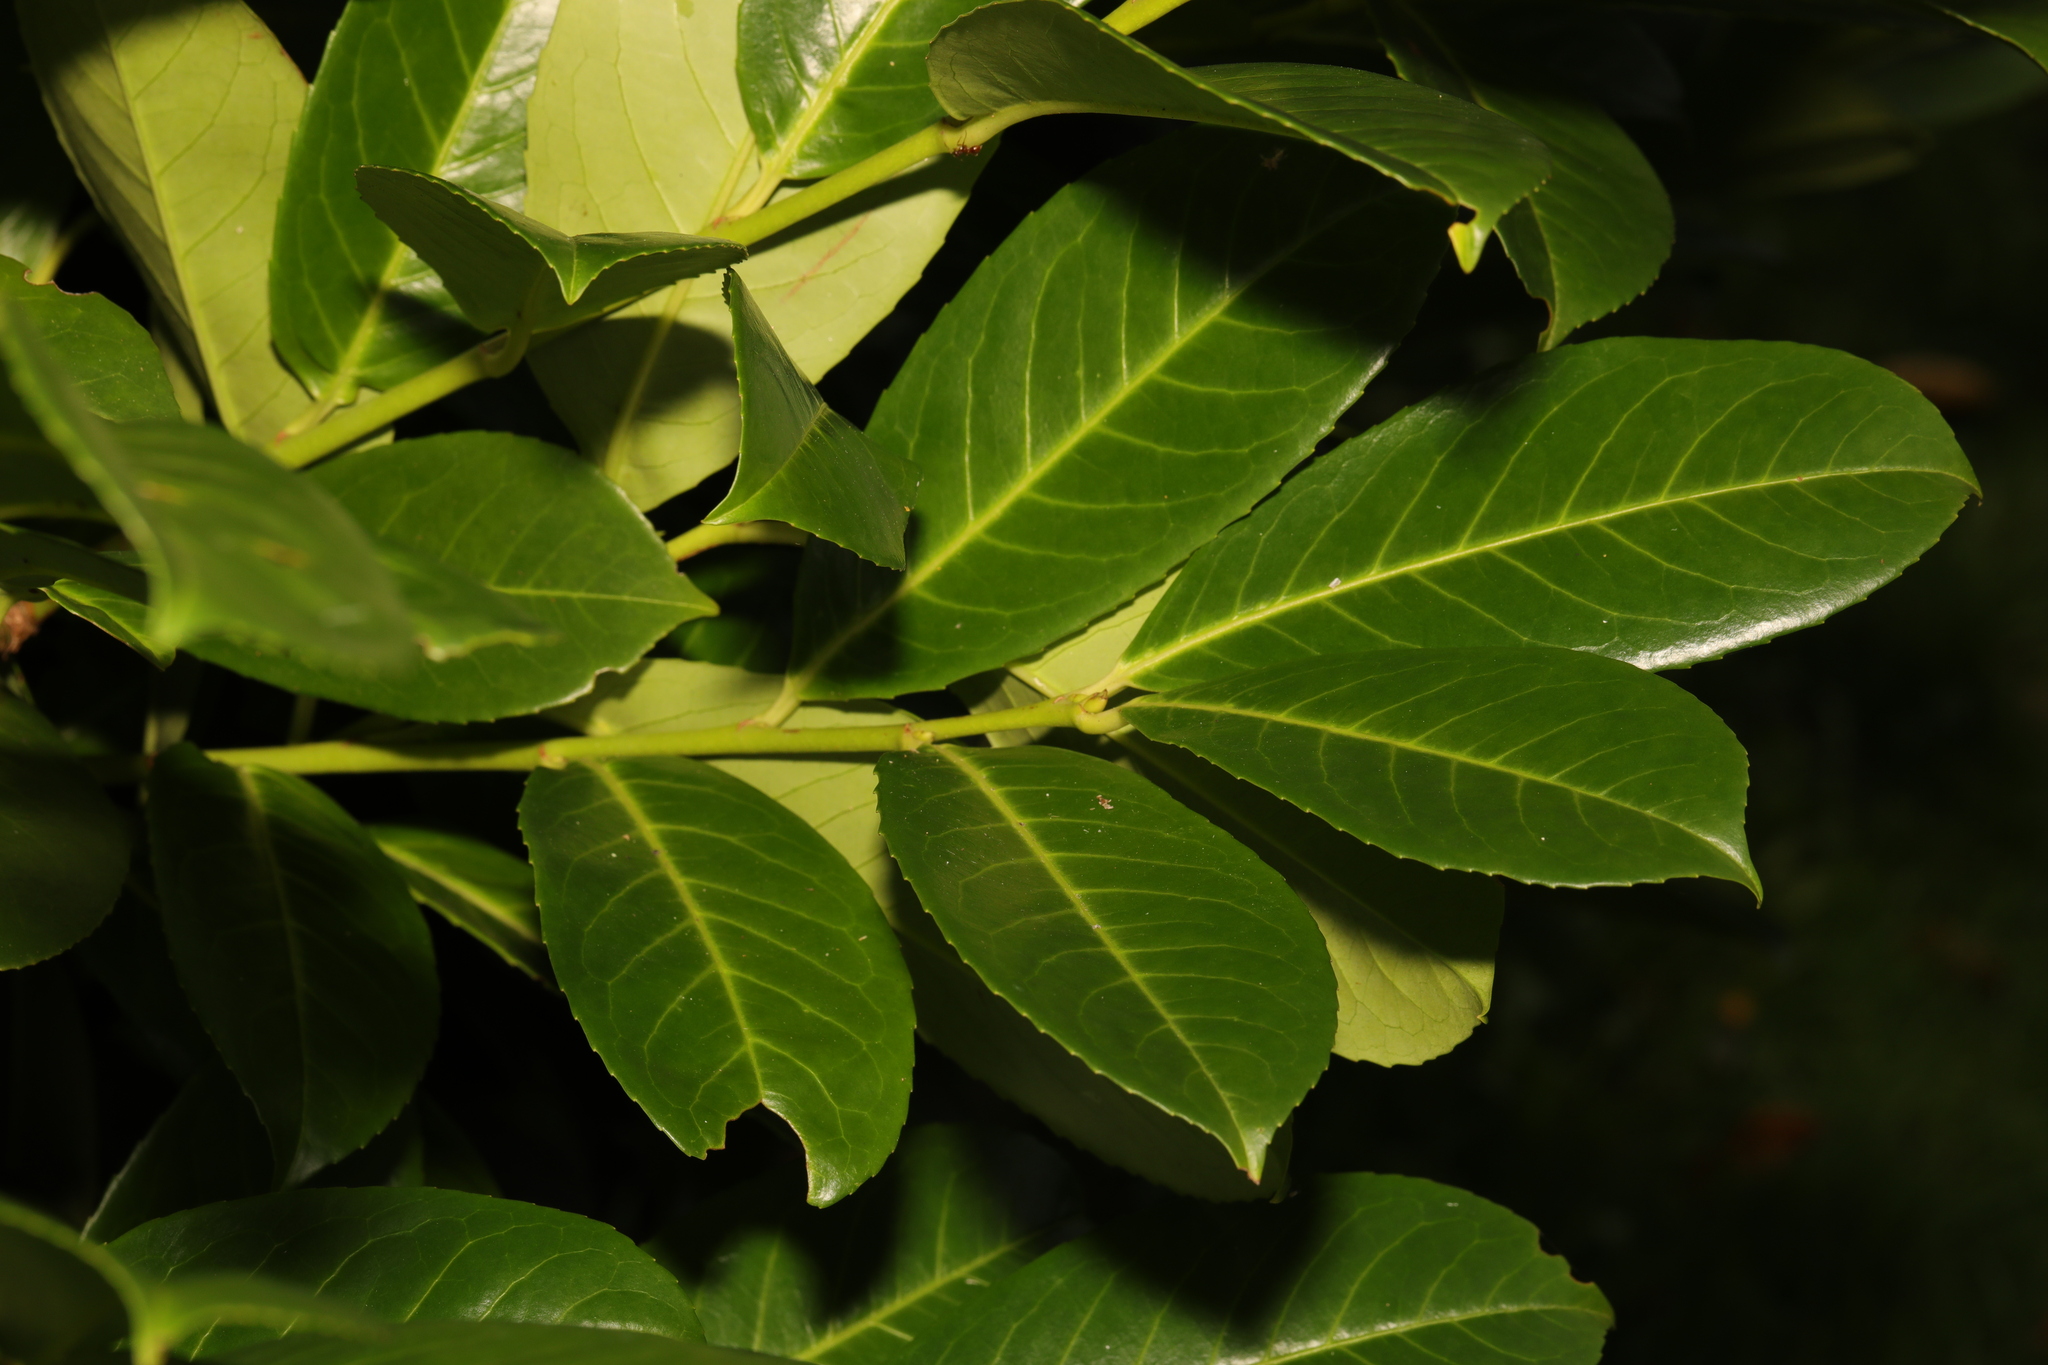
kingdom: Plantae
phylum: Tracheophyta
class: Magnoliopsida
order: Rosales
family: Rosaceae
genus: Prunus
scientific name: Prunus laurocerasus
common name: Cherry laurel
